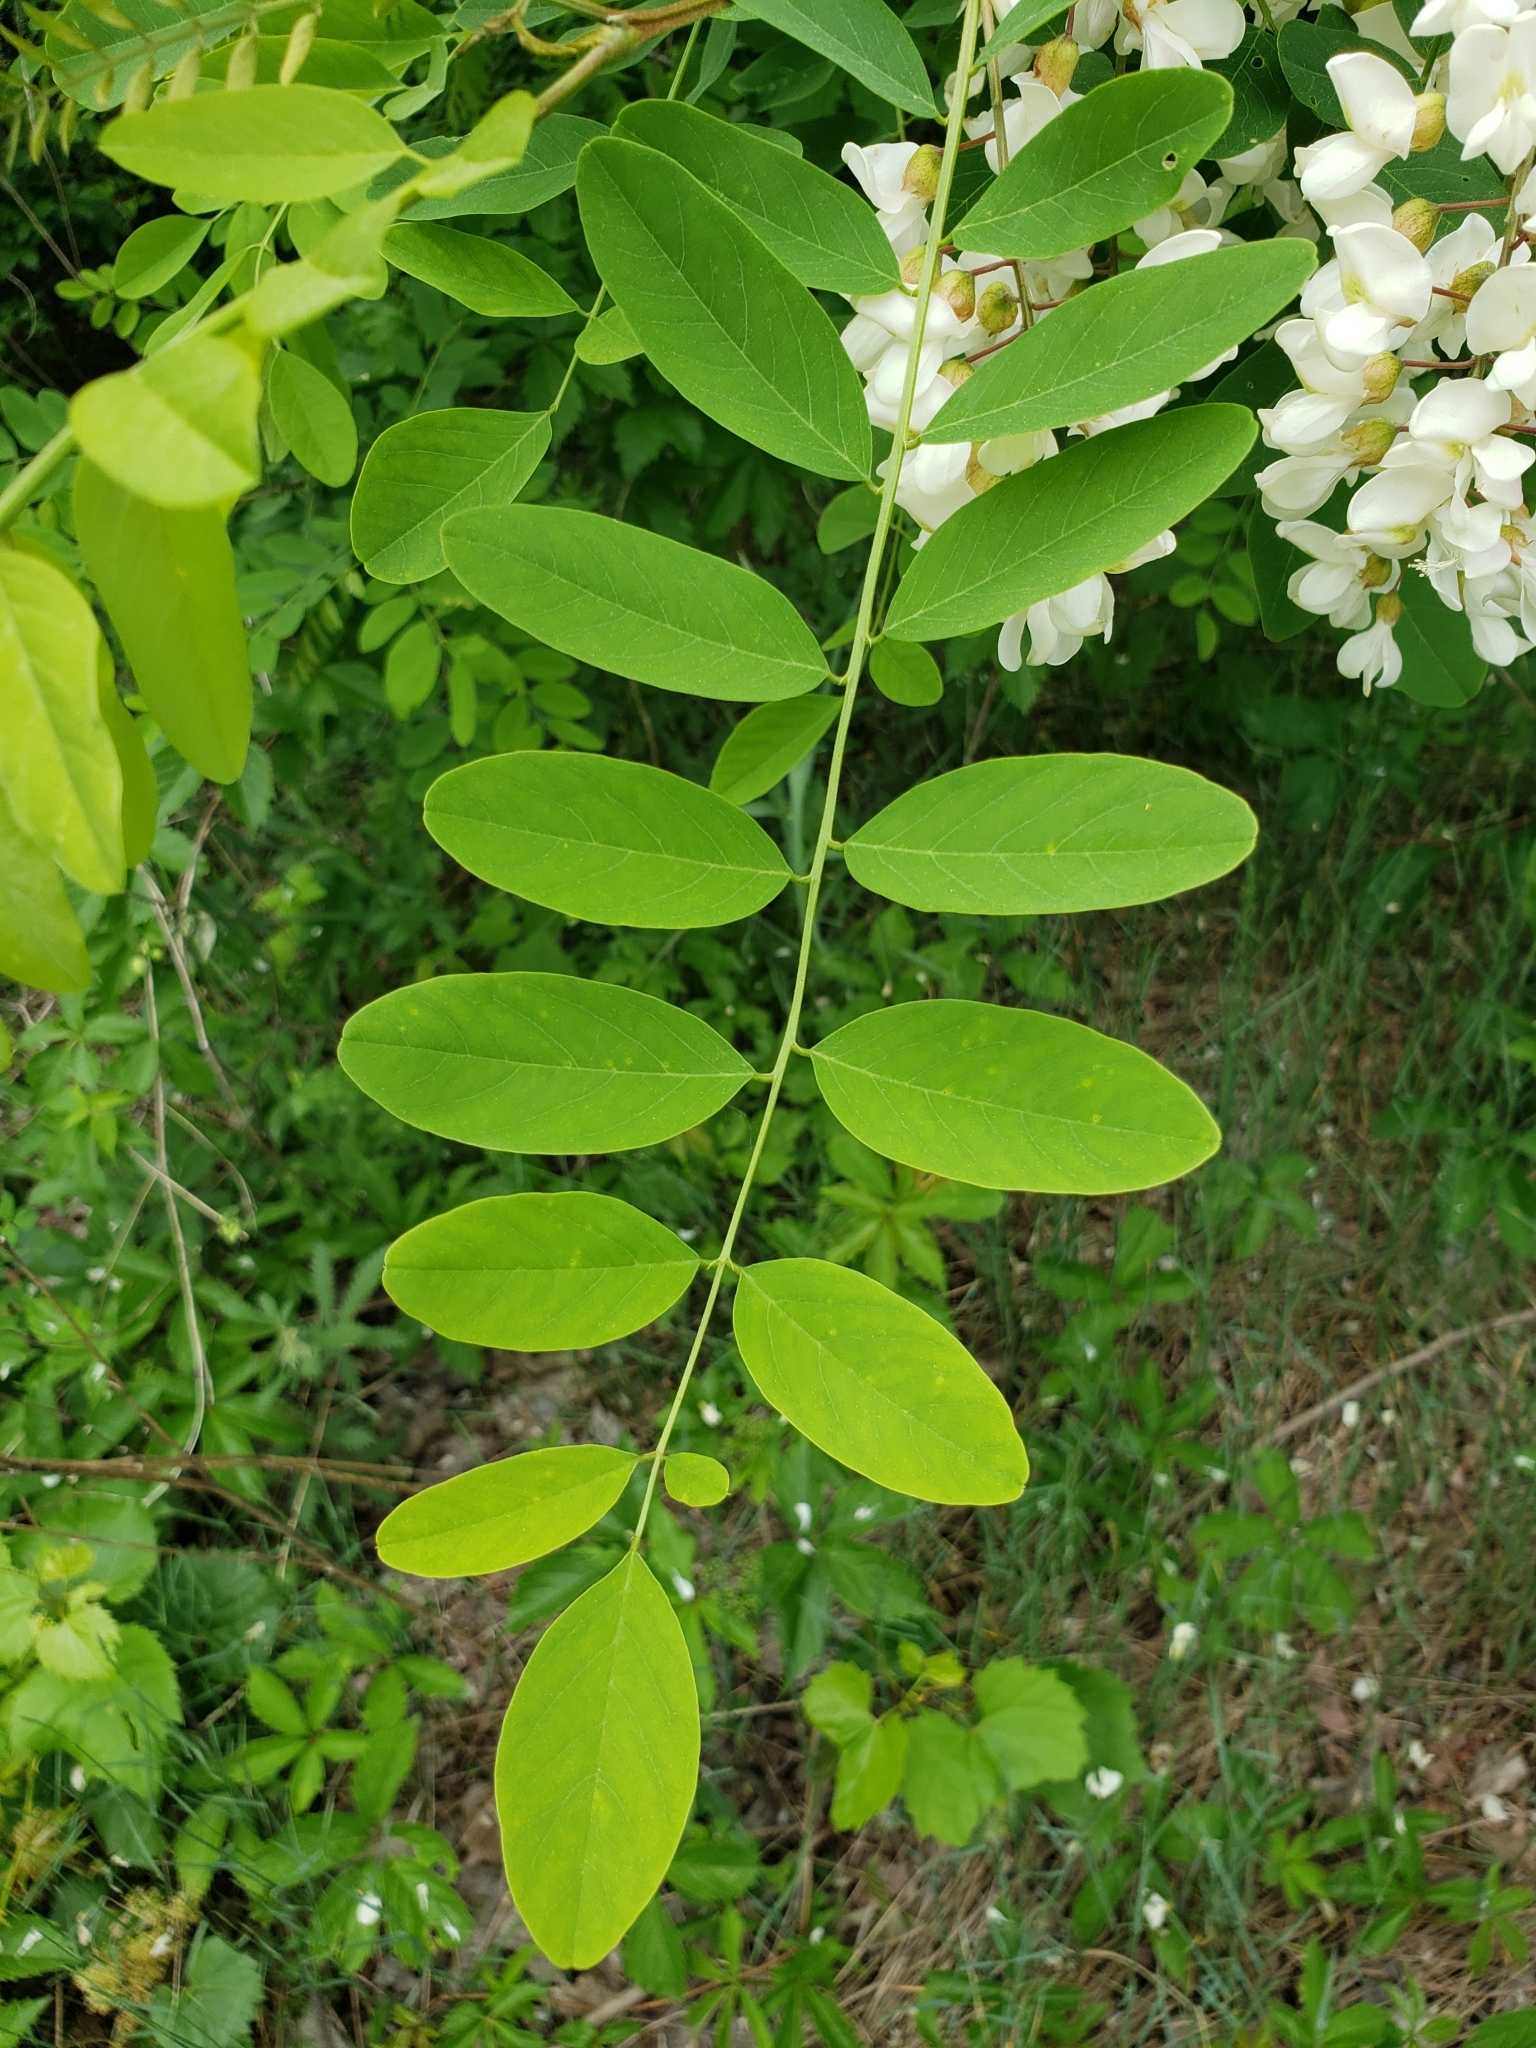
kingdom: Plantae
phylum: Tracheophyta
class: Magnoliopsida
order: Fabales
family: Fabaceae
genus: Robinia
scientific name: Robinia pseudoacacia
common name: Black locust
